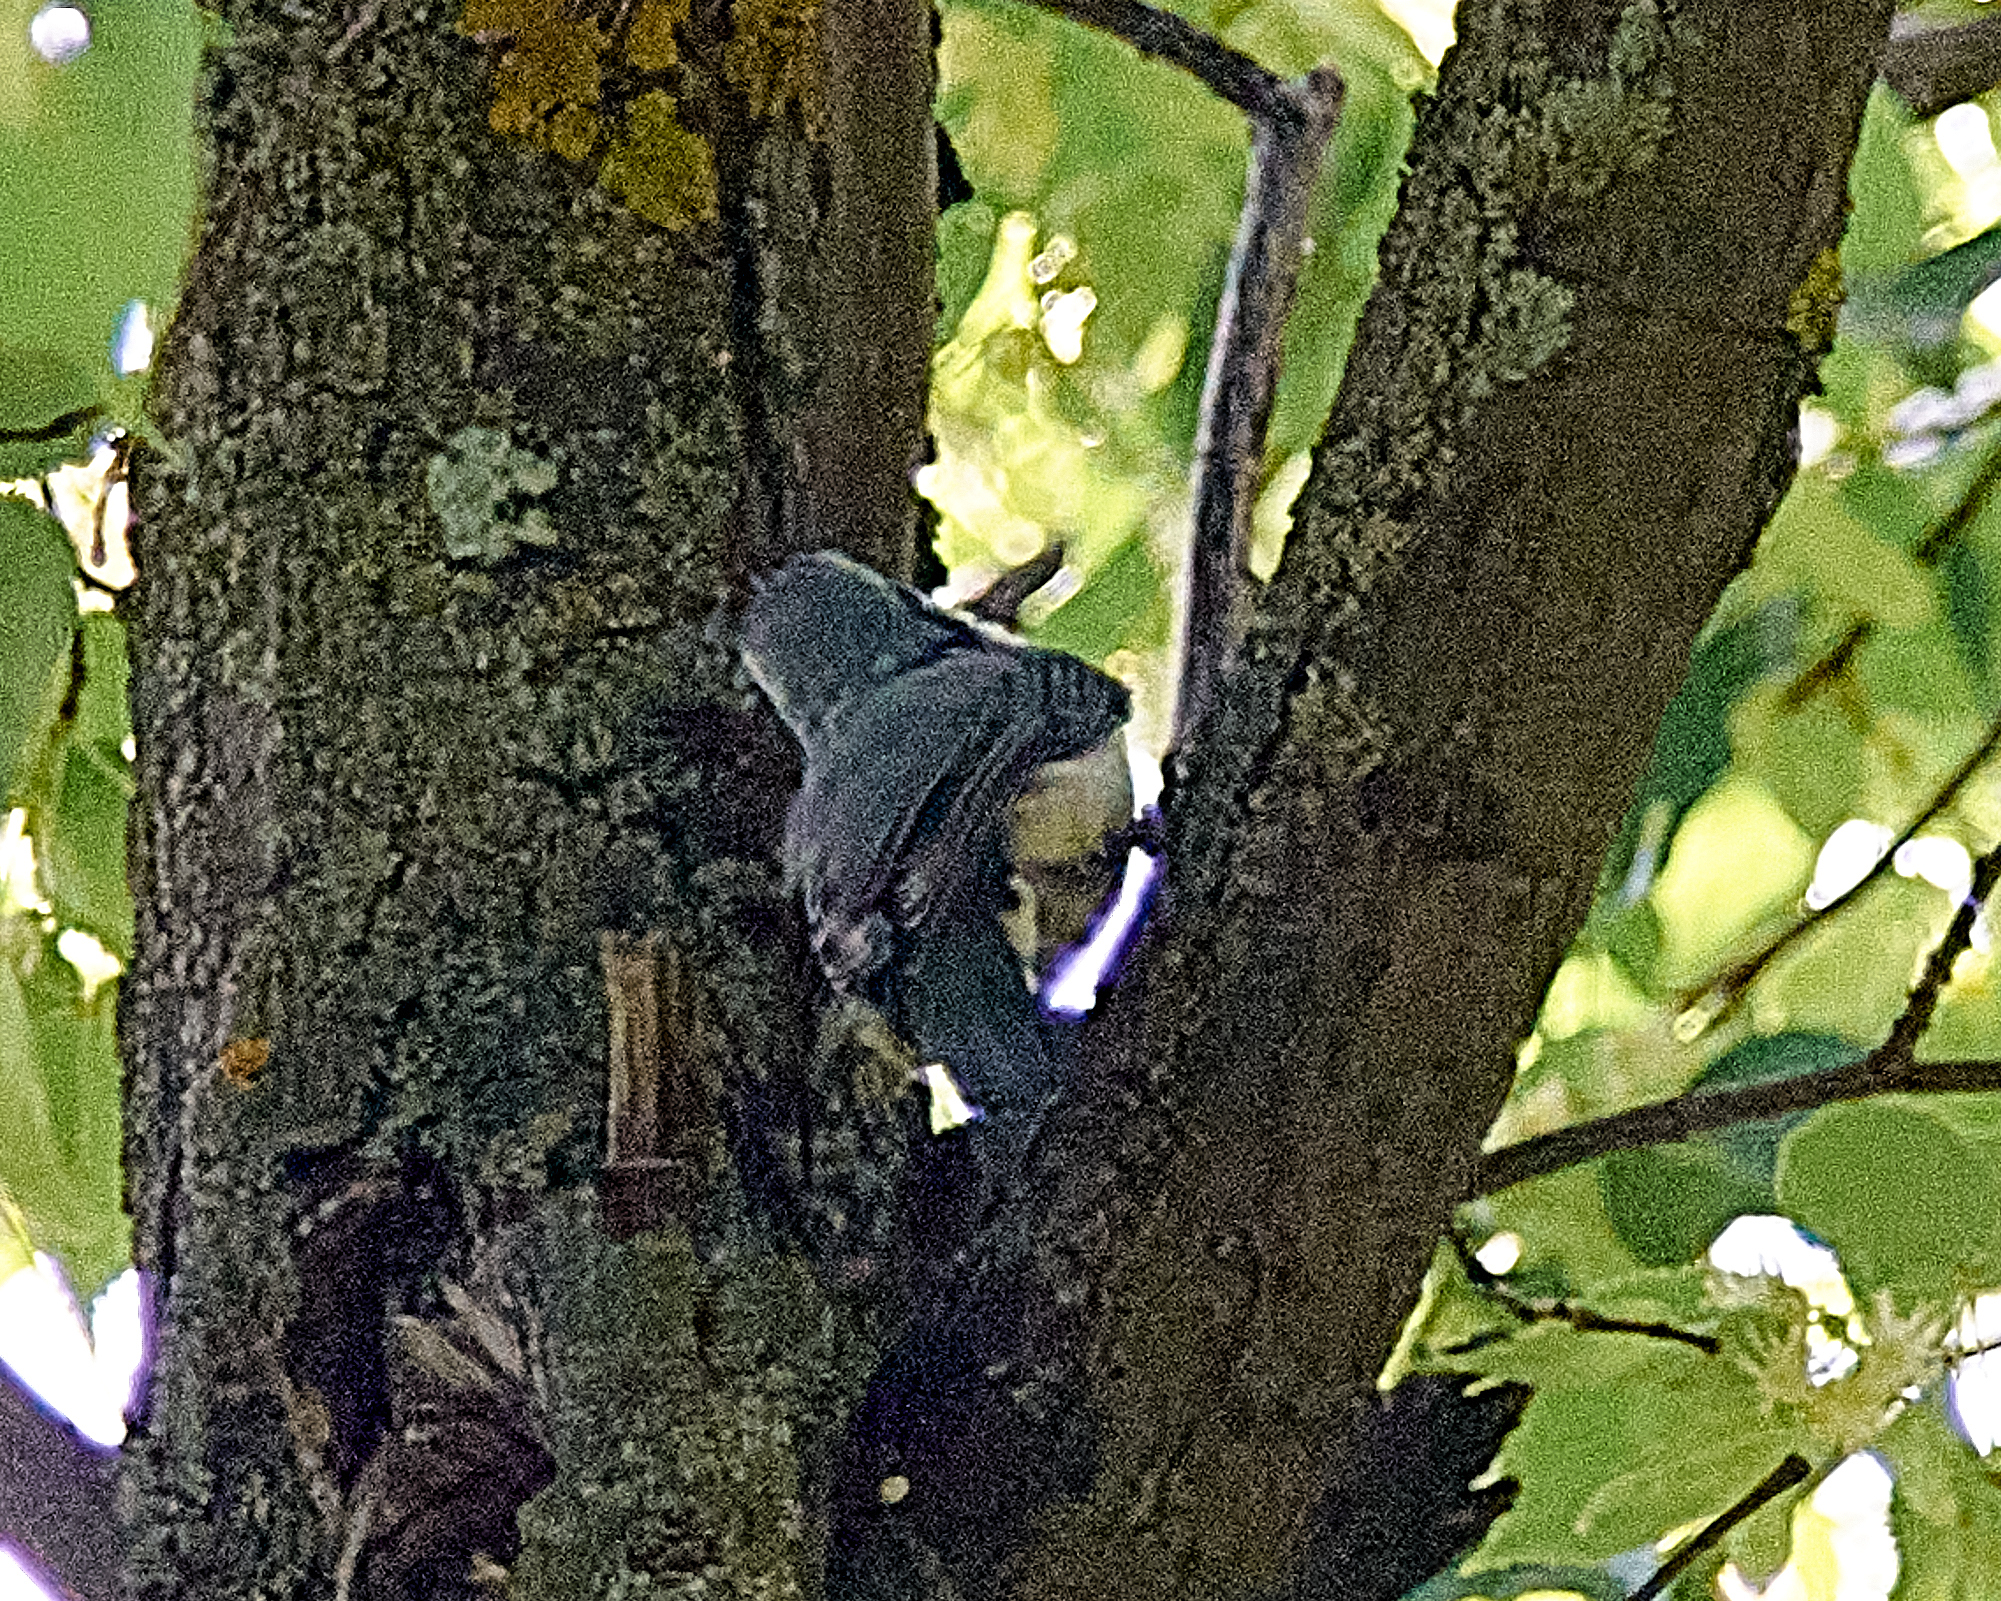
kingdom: Animalia
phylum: Chordata
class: Aves
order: Passeriformes
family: Sittidae
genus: Sitta
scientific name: Sitta europaea
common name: Eurasian nuthatch
